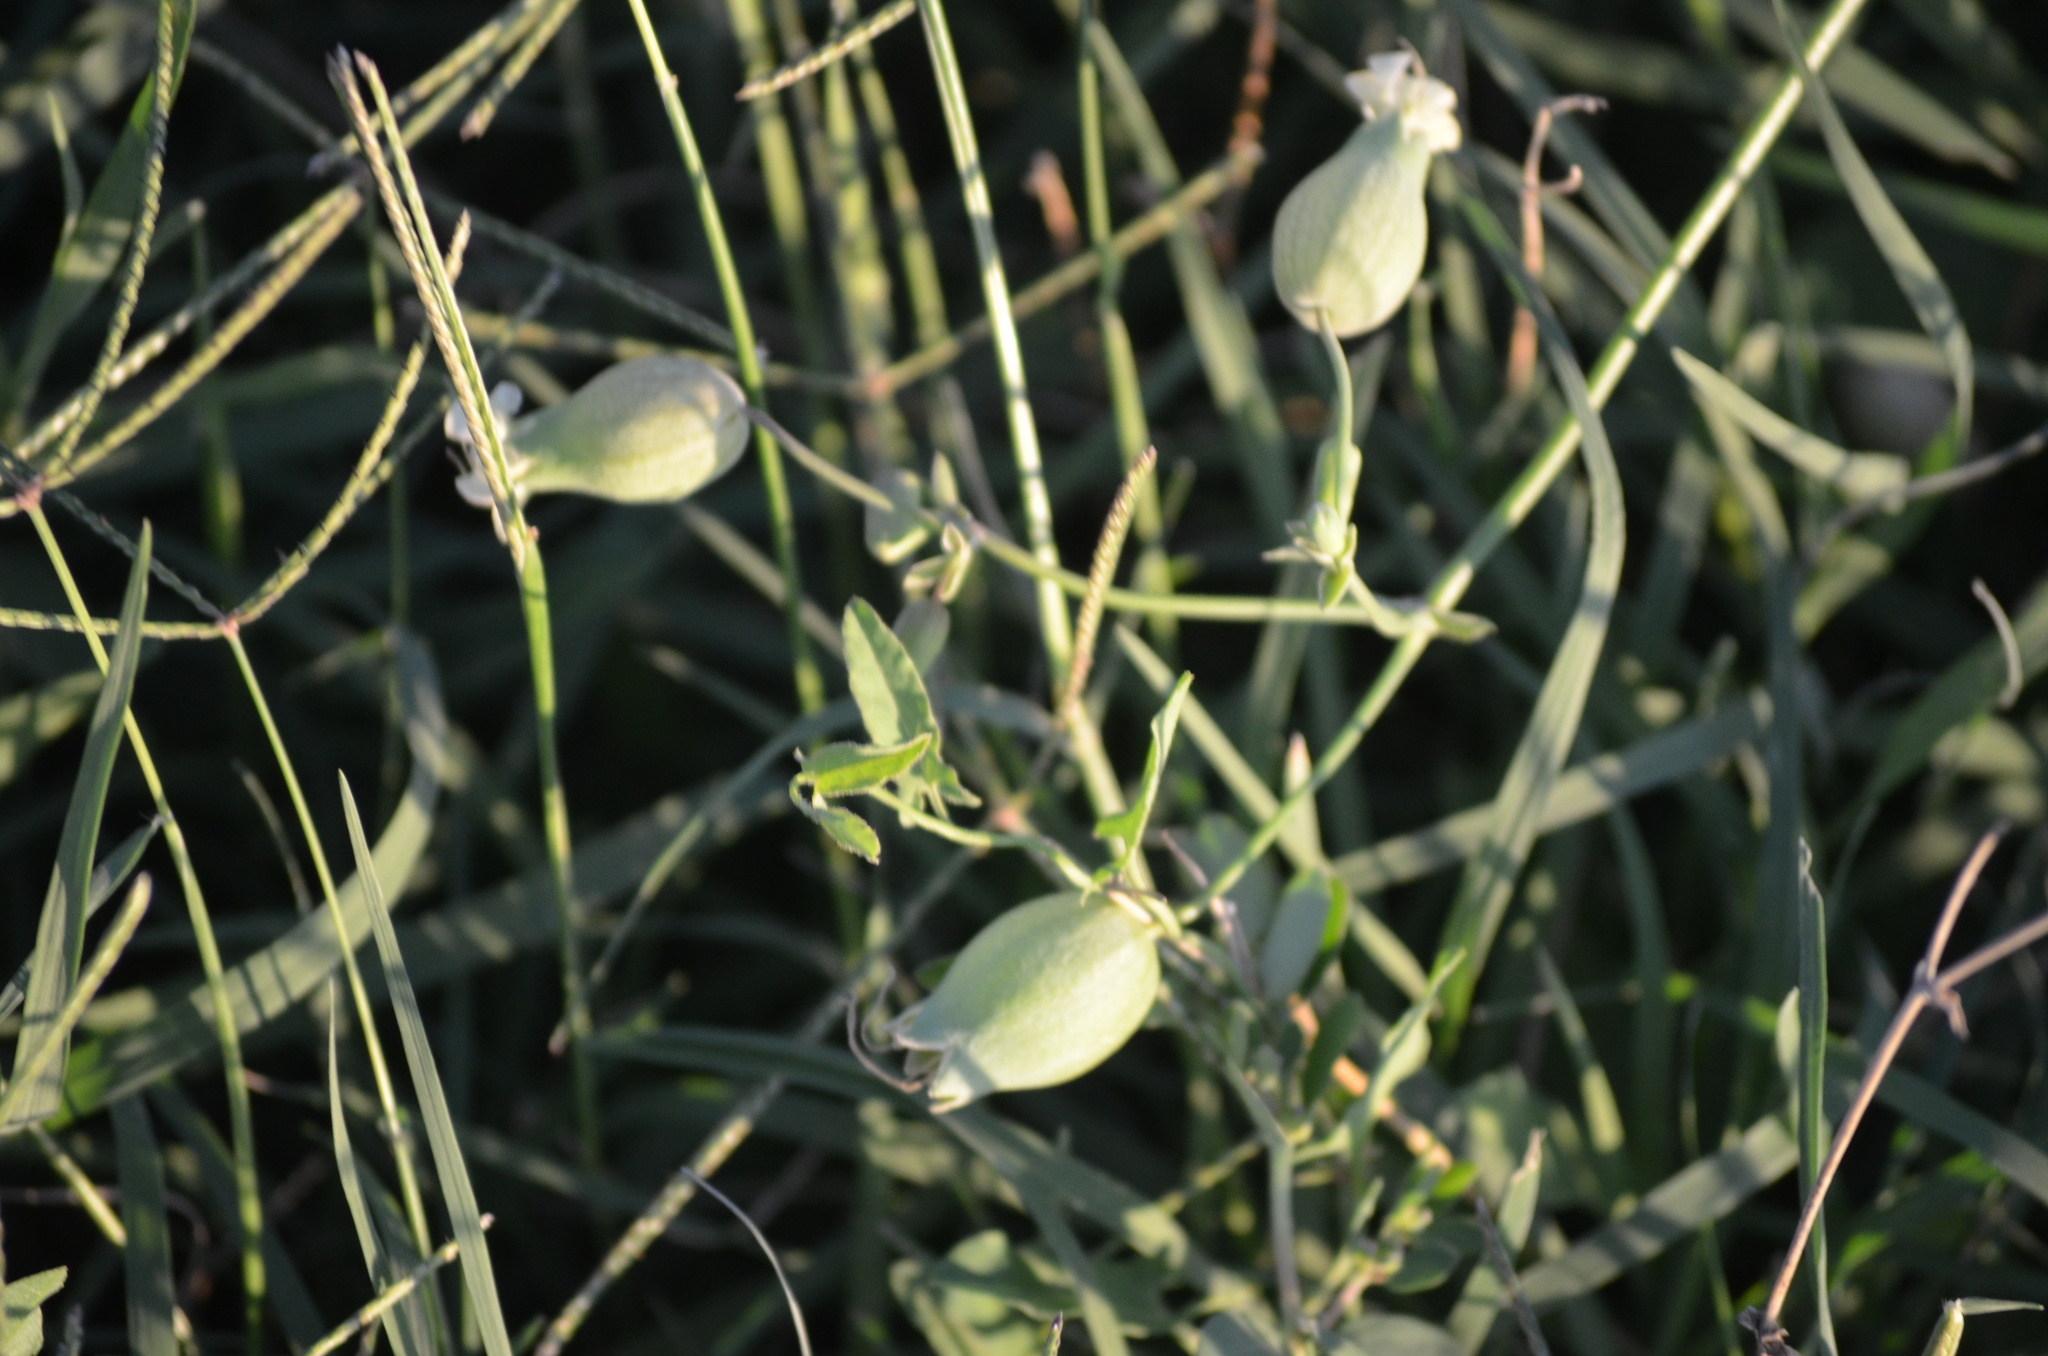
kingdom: Plantae
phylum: Tracheophyta
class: Magnoliopsida
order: Caryophyllales
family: Caryophyllaceae
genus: Silene
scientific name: Silene vulgaris
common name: Bladder campion
